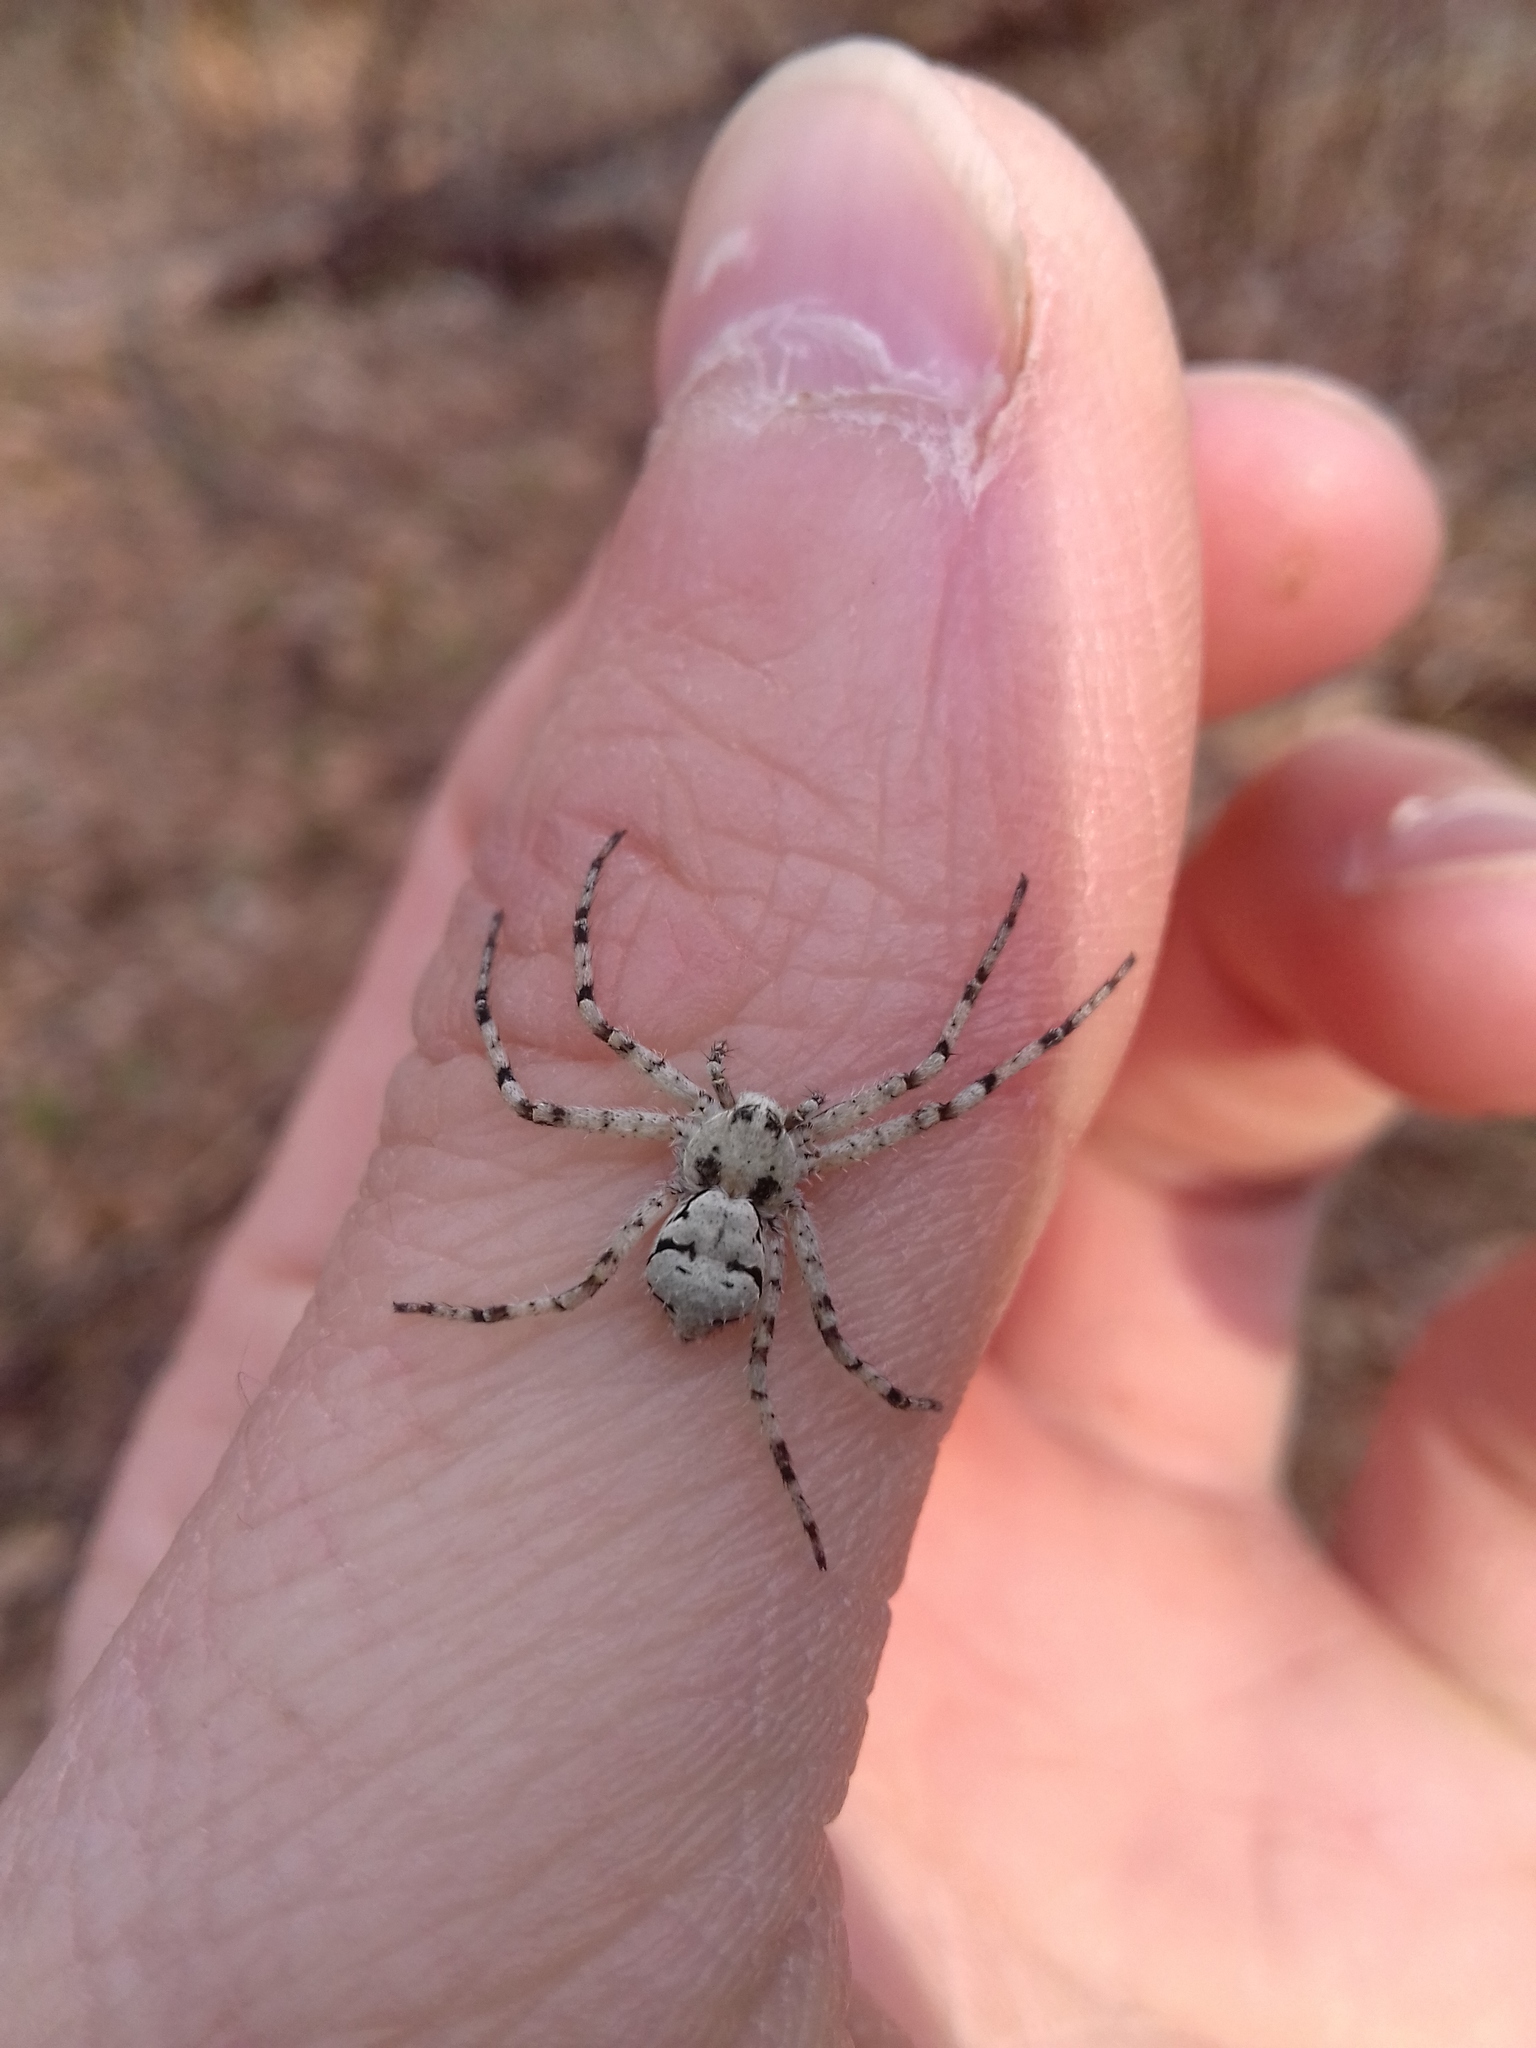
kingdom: Animalia
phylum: Arthropoda
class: Arachnida
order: Araneae
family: Philodromidae
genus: Philodromus
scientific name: Philodromus margaritatus
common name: Lichen running-spider
